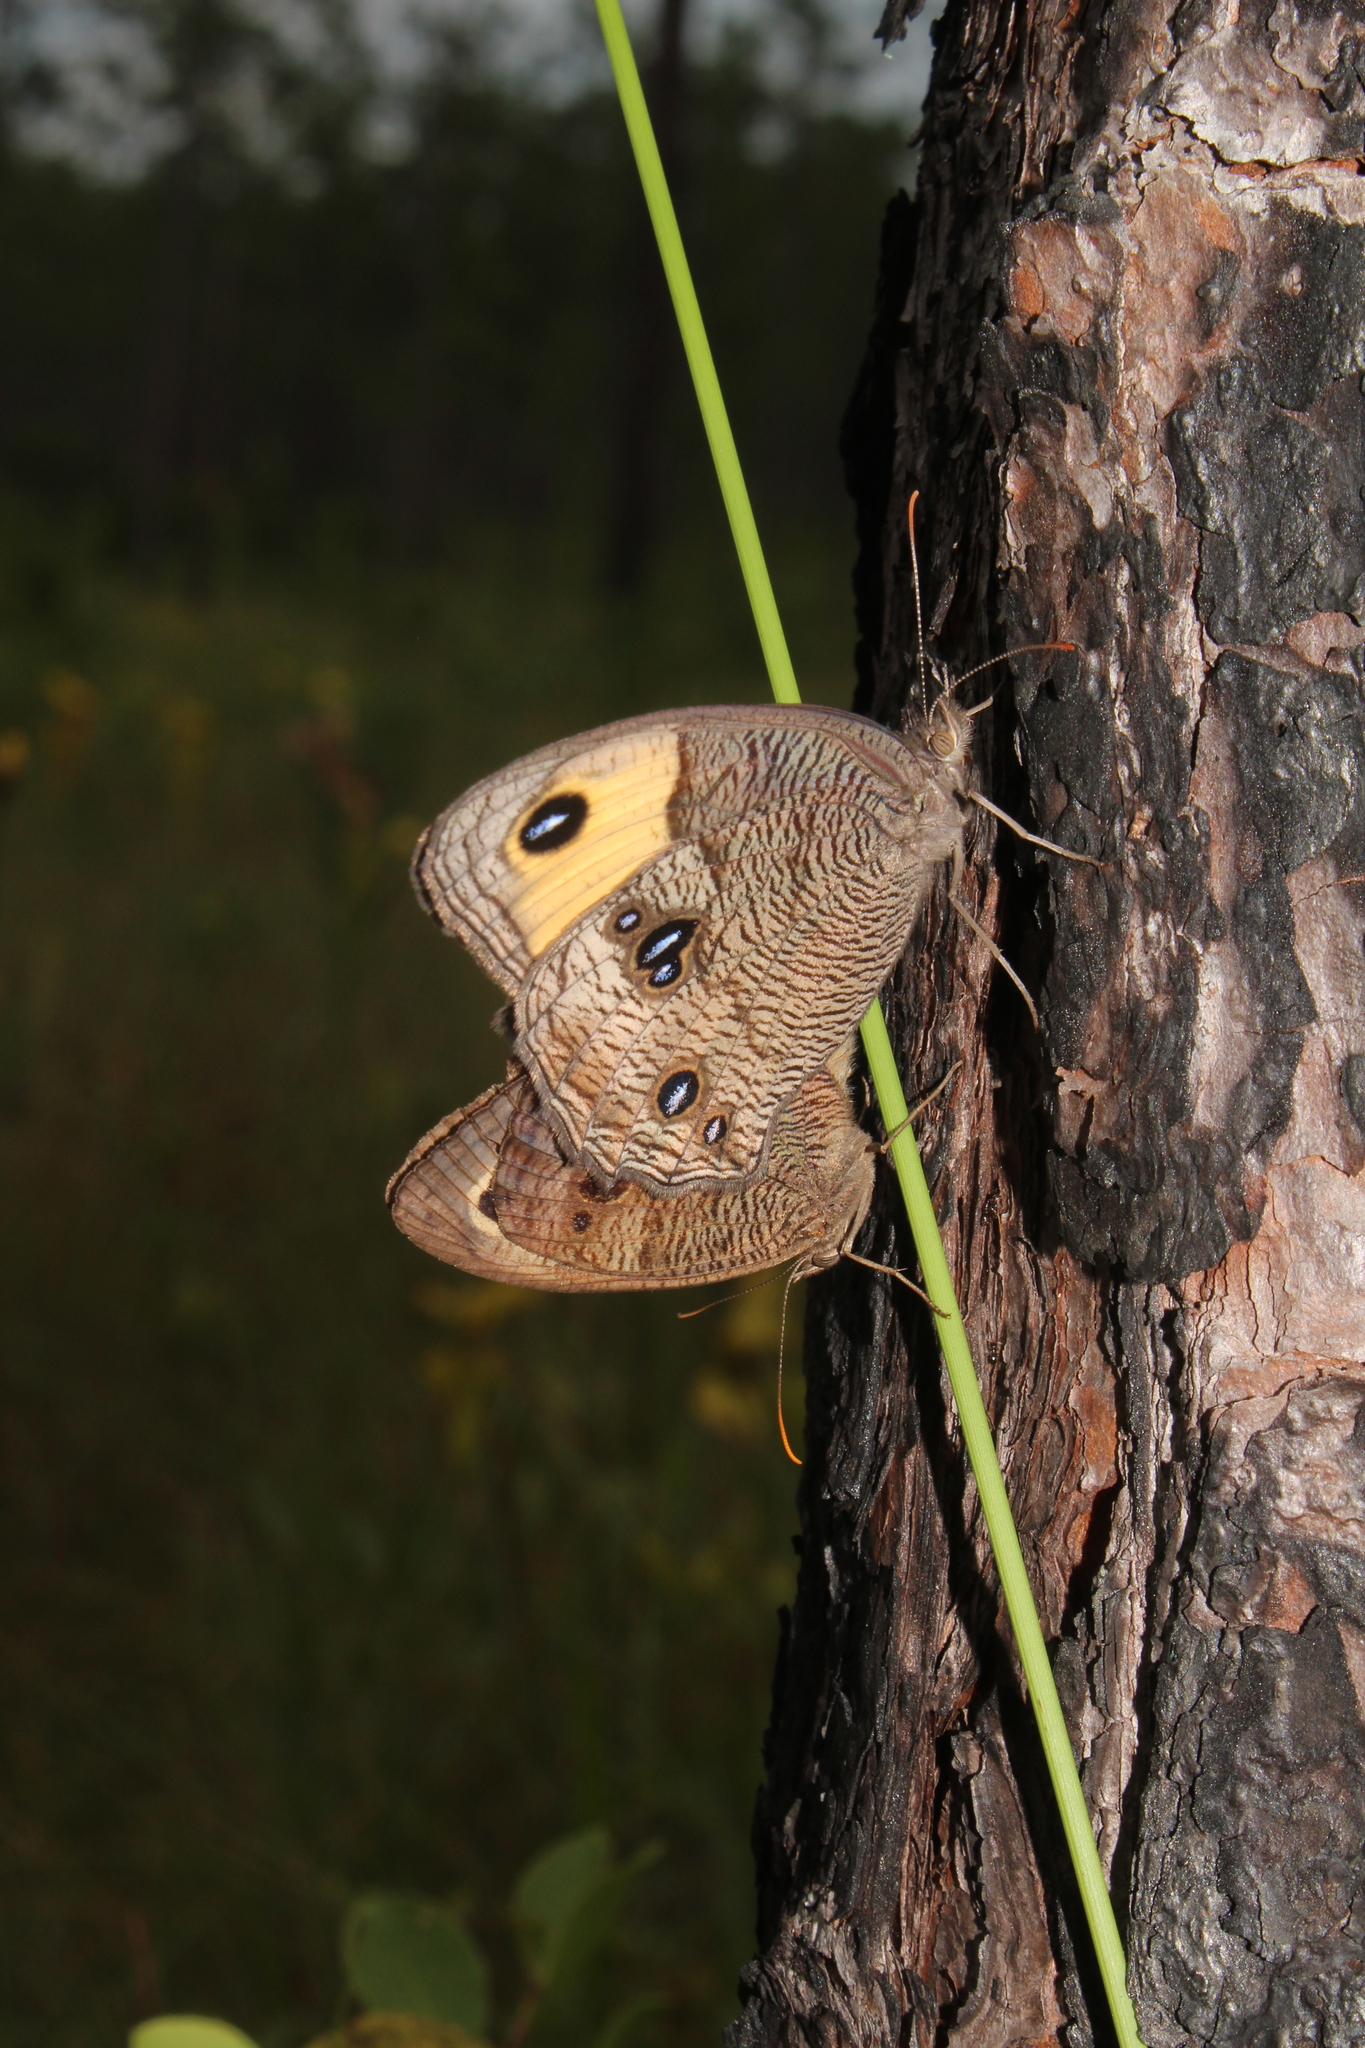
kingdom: Animalia
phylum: Arthropoda
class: Insecta
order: Lepidoptera
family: Nymphalidae
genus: Cercyonis
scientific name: Cercyonis pegala
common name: Common wood-nymph
